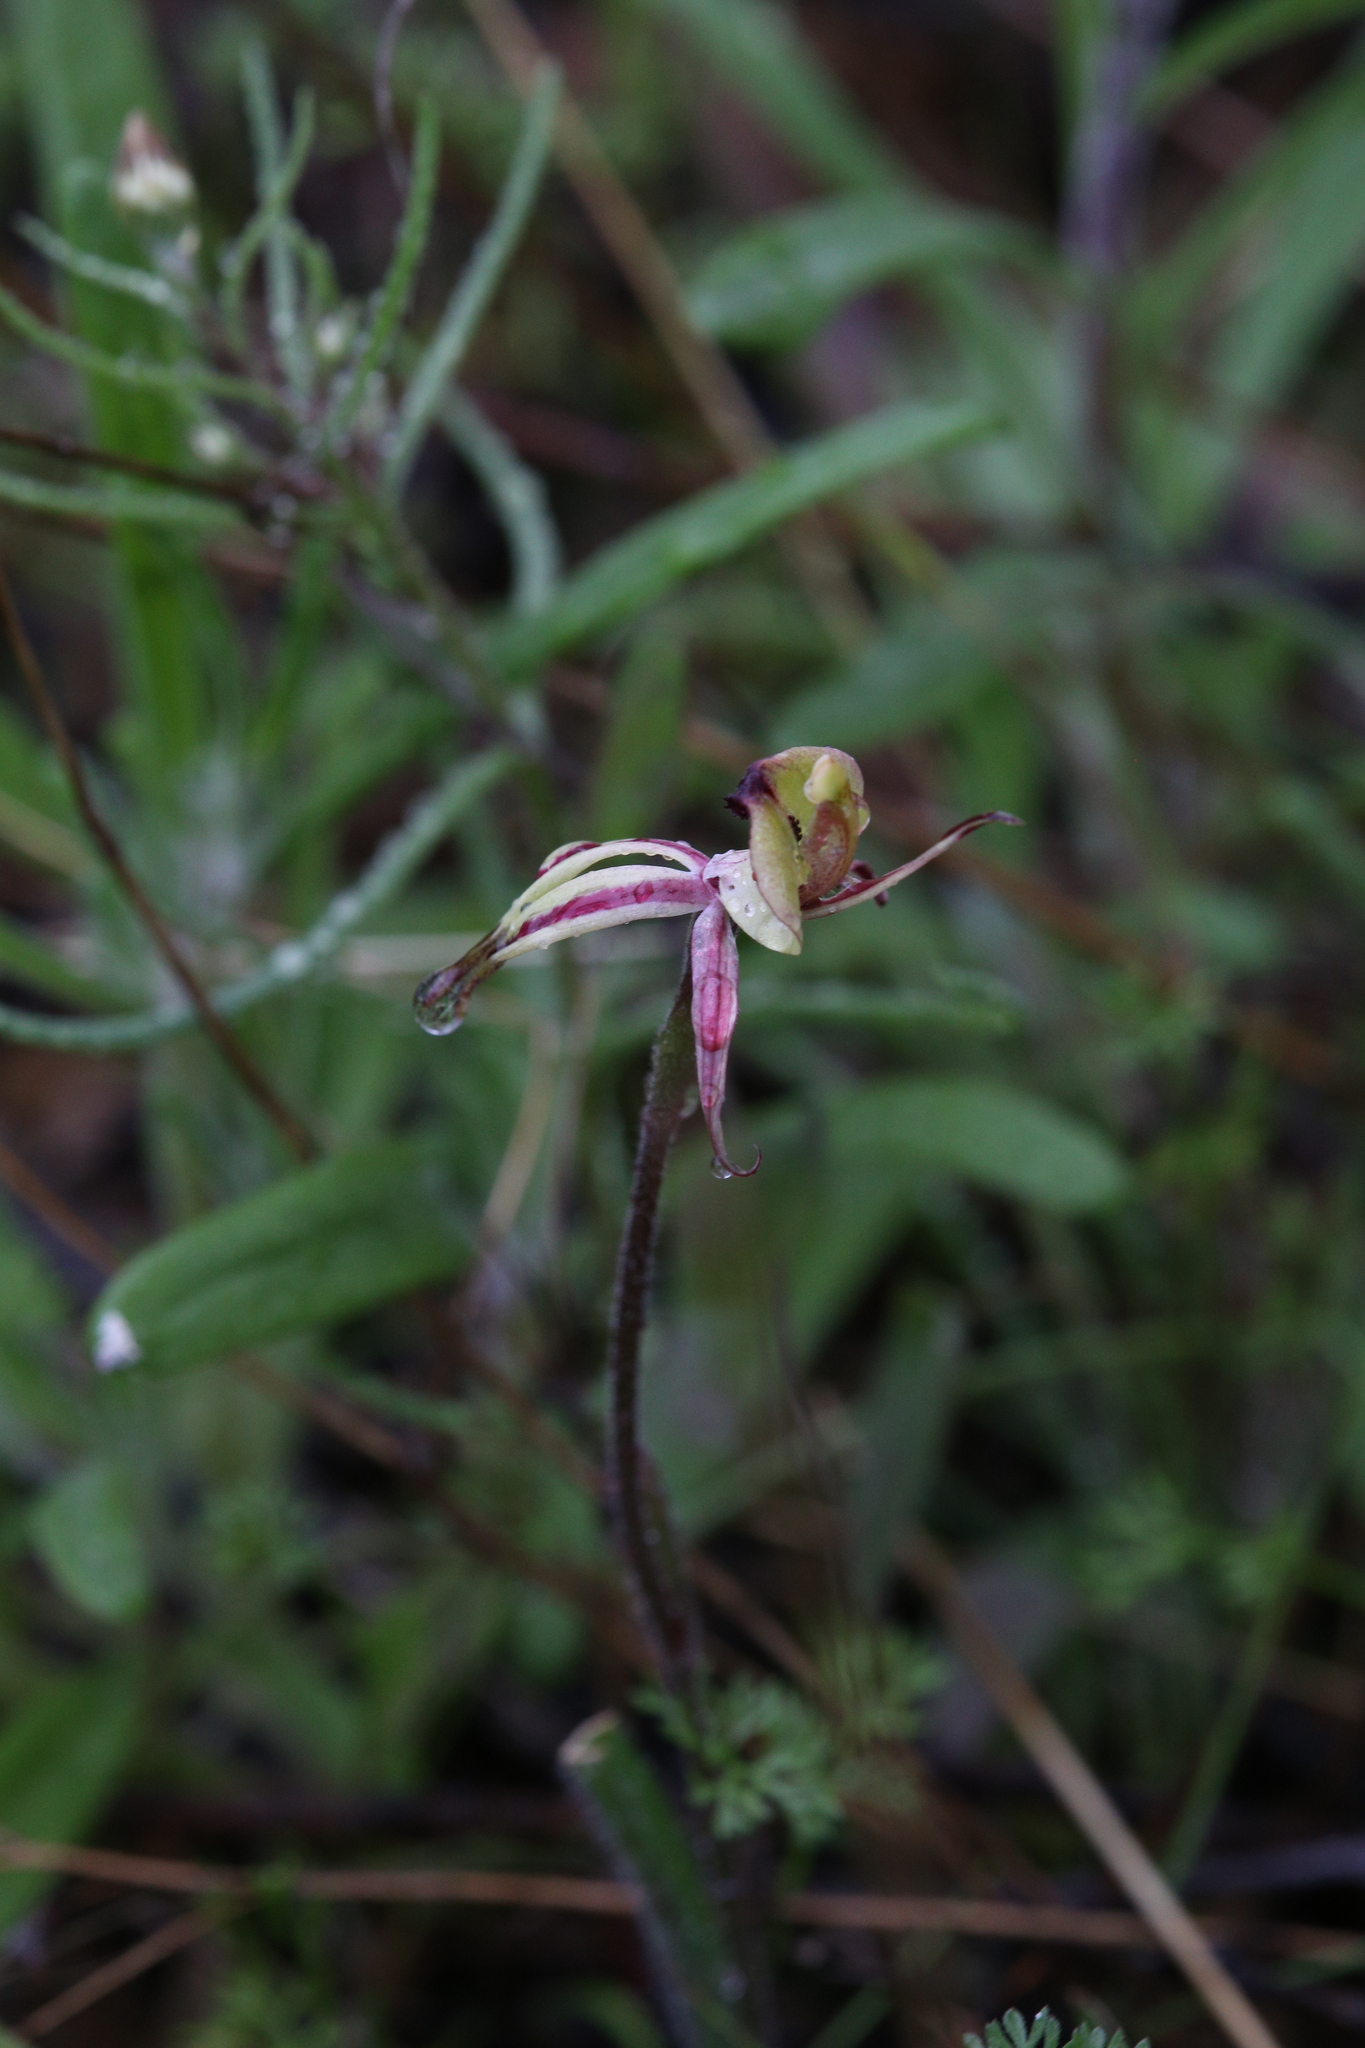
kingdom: Plantae
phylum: Tracheophyta
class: Liliopsida
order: Asparagales
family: Orchidaceae
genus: Caladenia
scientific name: Caladenia roei
